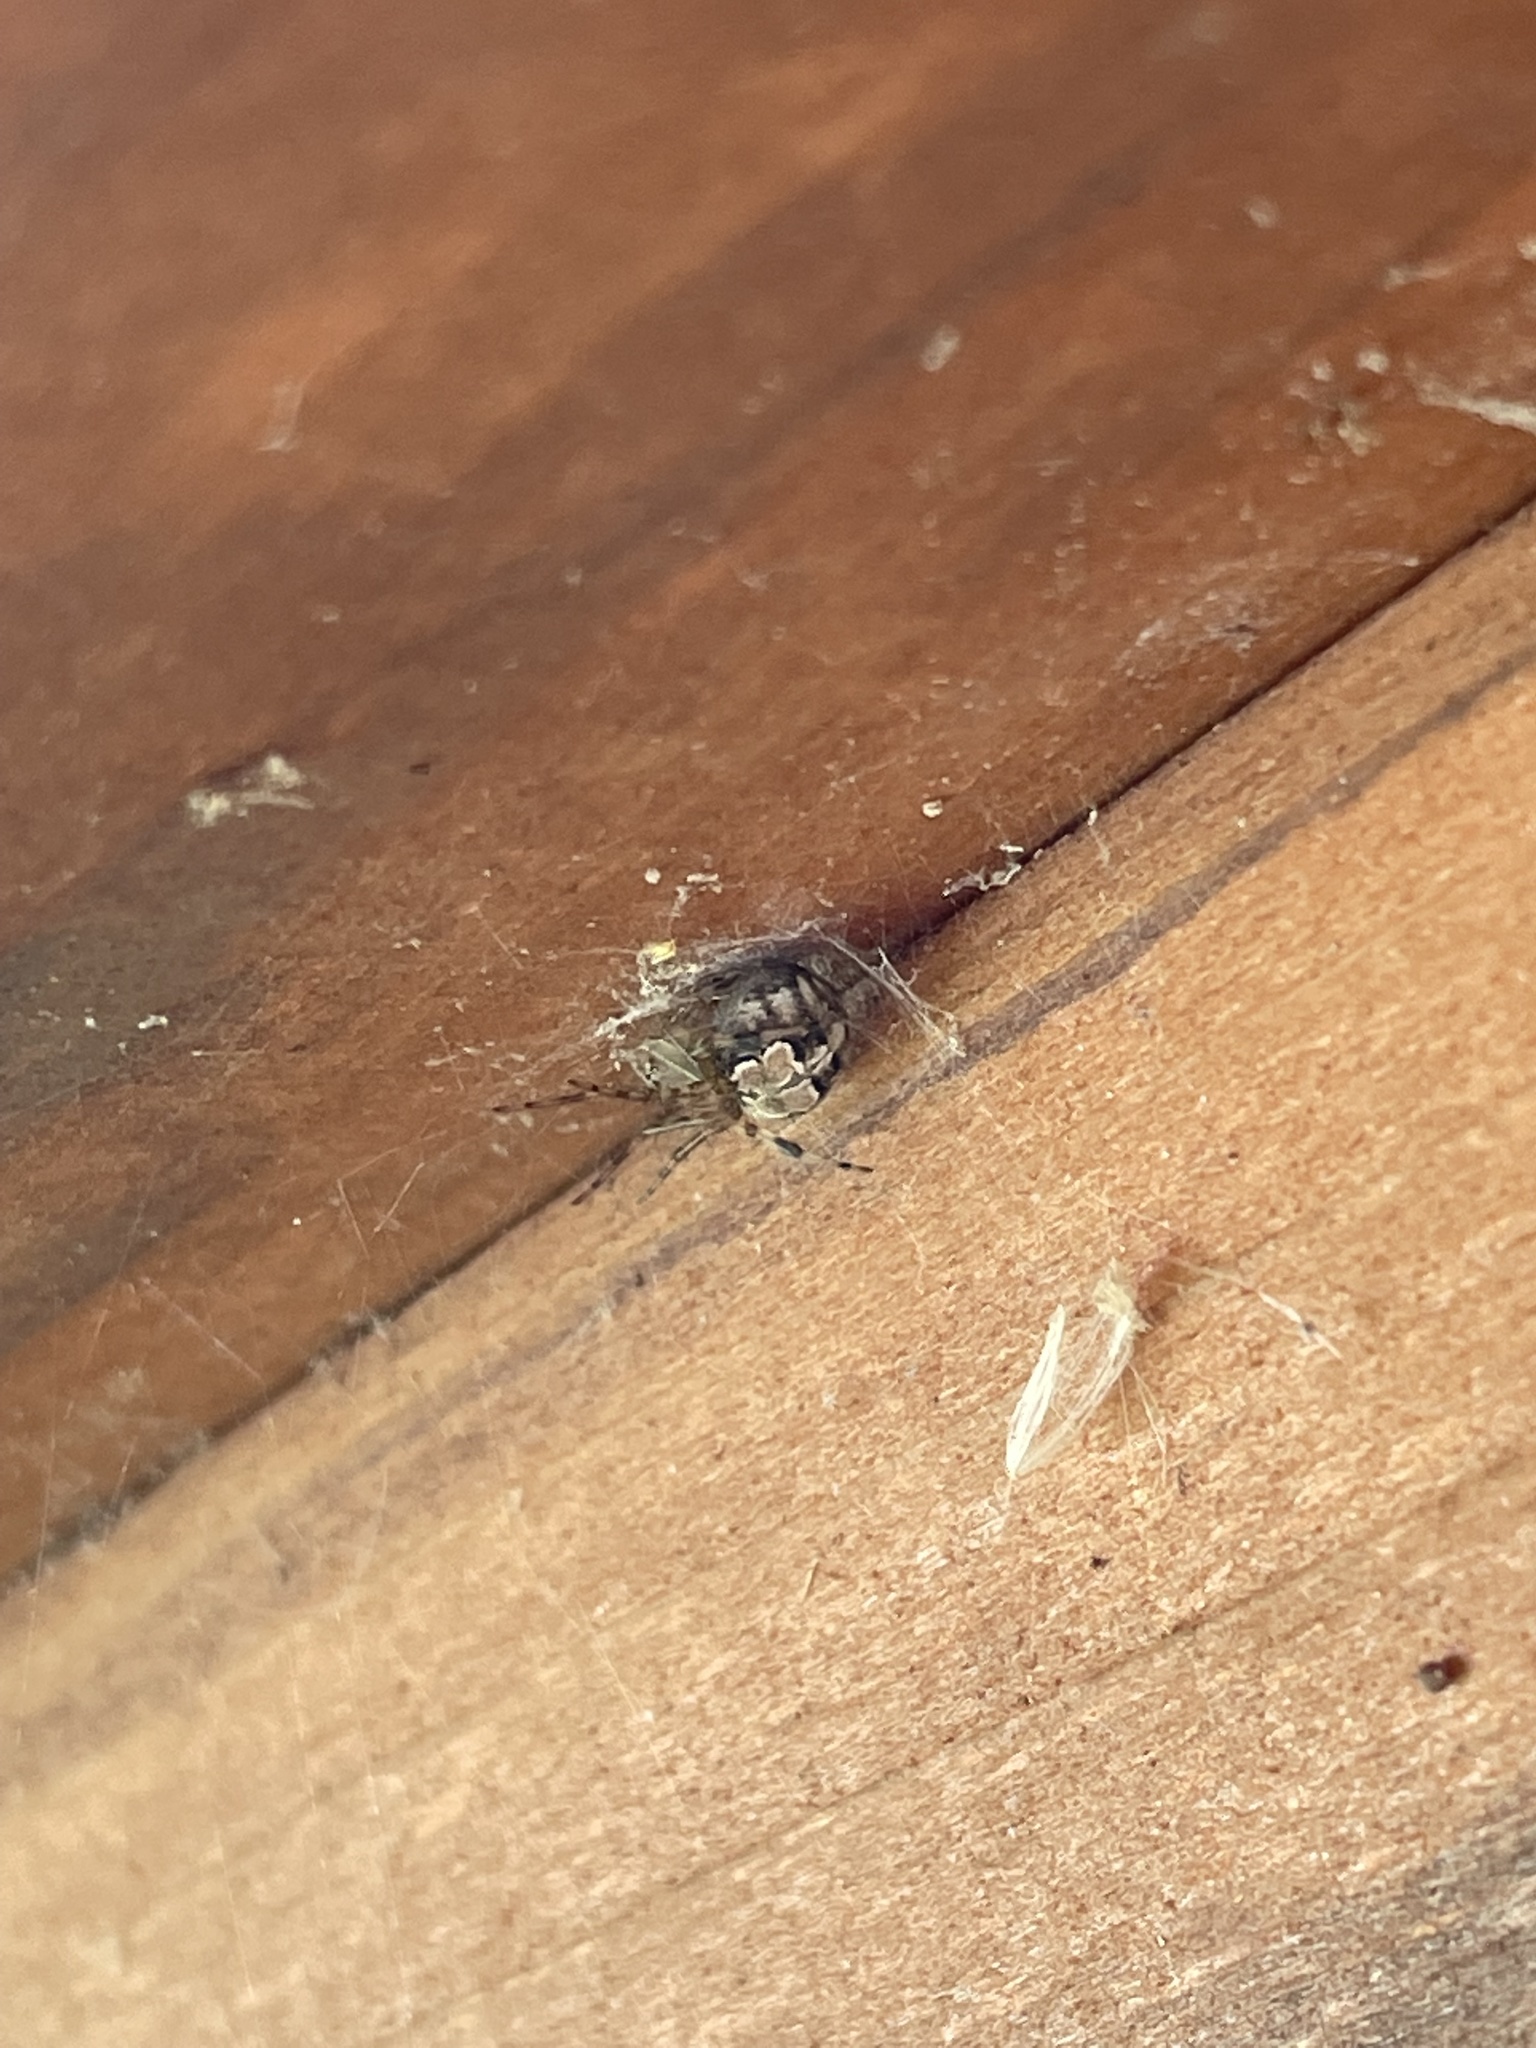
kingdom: Animalia
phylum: Arthropoda
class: Arachnida
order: Araneae
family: Araneidae
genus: Araneus
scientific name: Araneus pegnia
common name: Orb weavers
